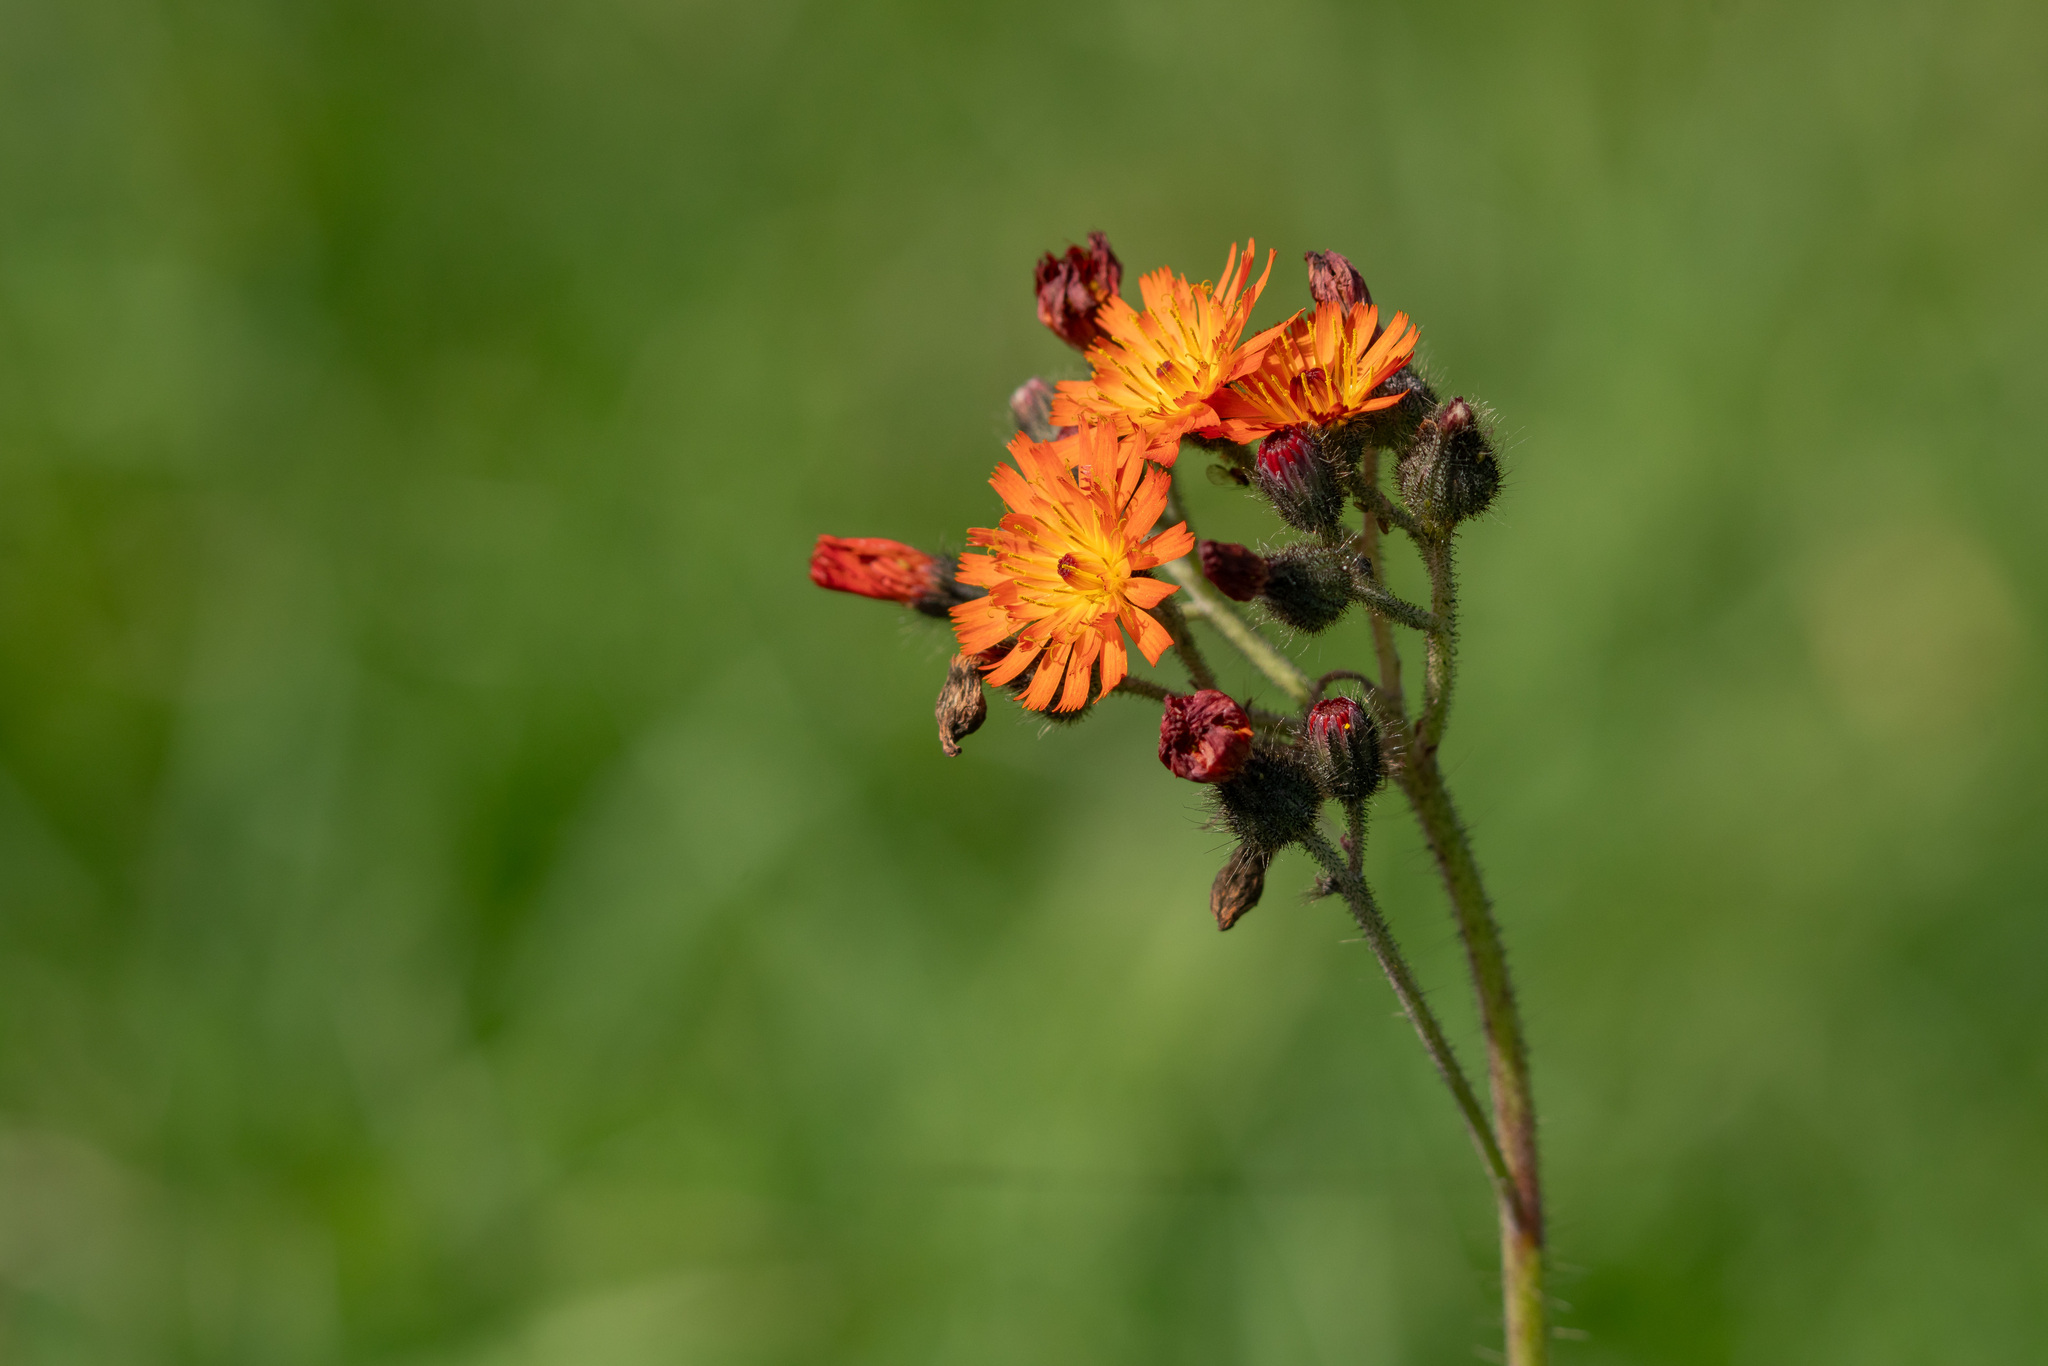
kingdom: Plantae
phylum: Tracheophyta
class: Magnoliopsida
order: Asterales
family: Asteraceae
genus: Pilosella
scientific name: Pilosella aurantiaca
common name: Fox-and-cubs
